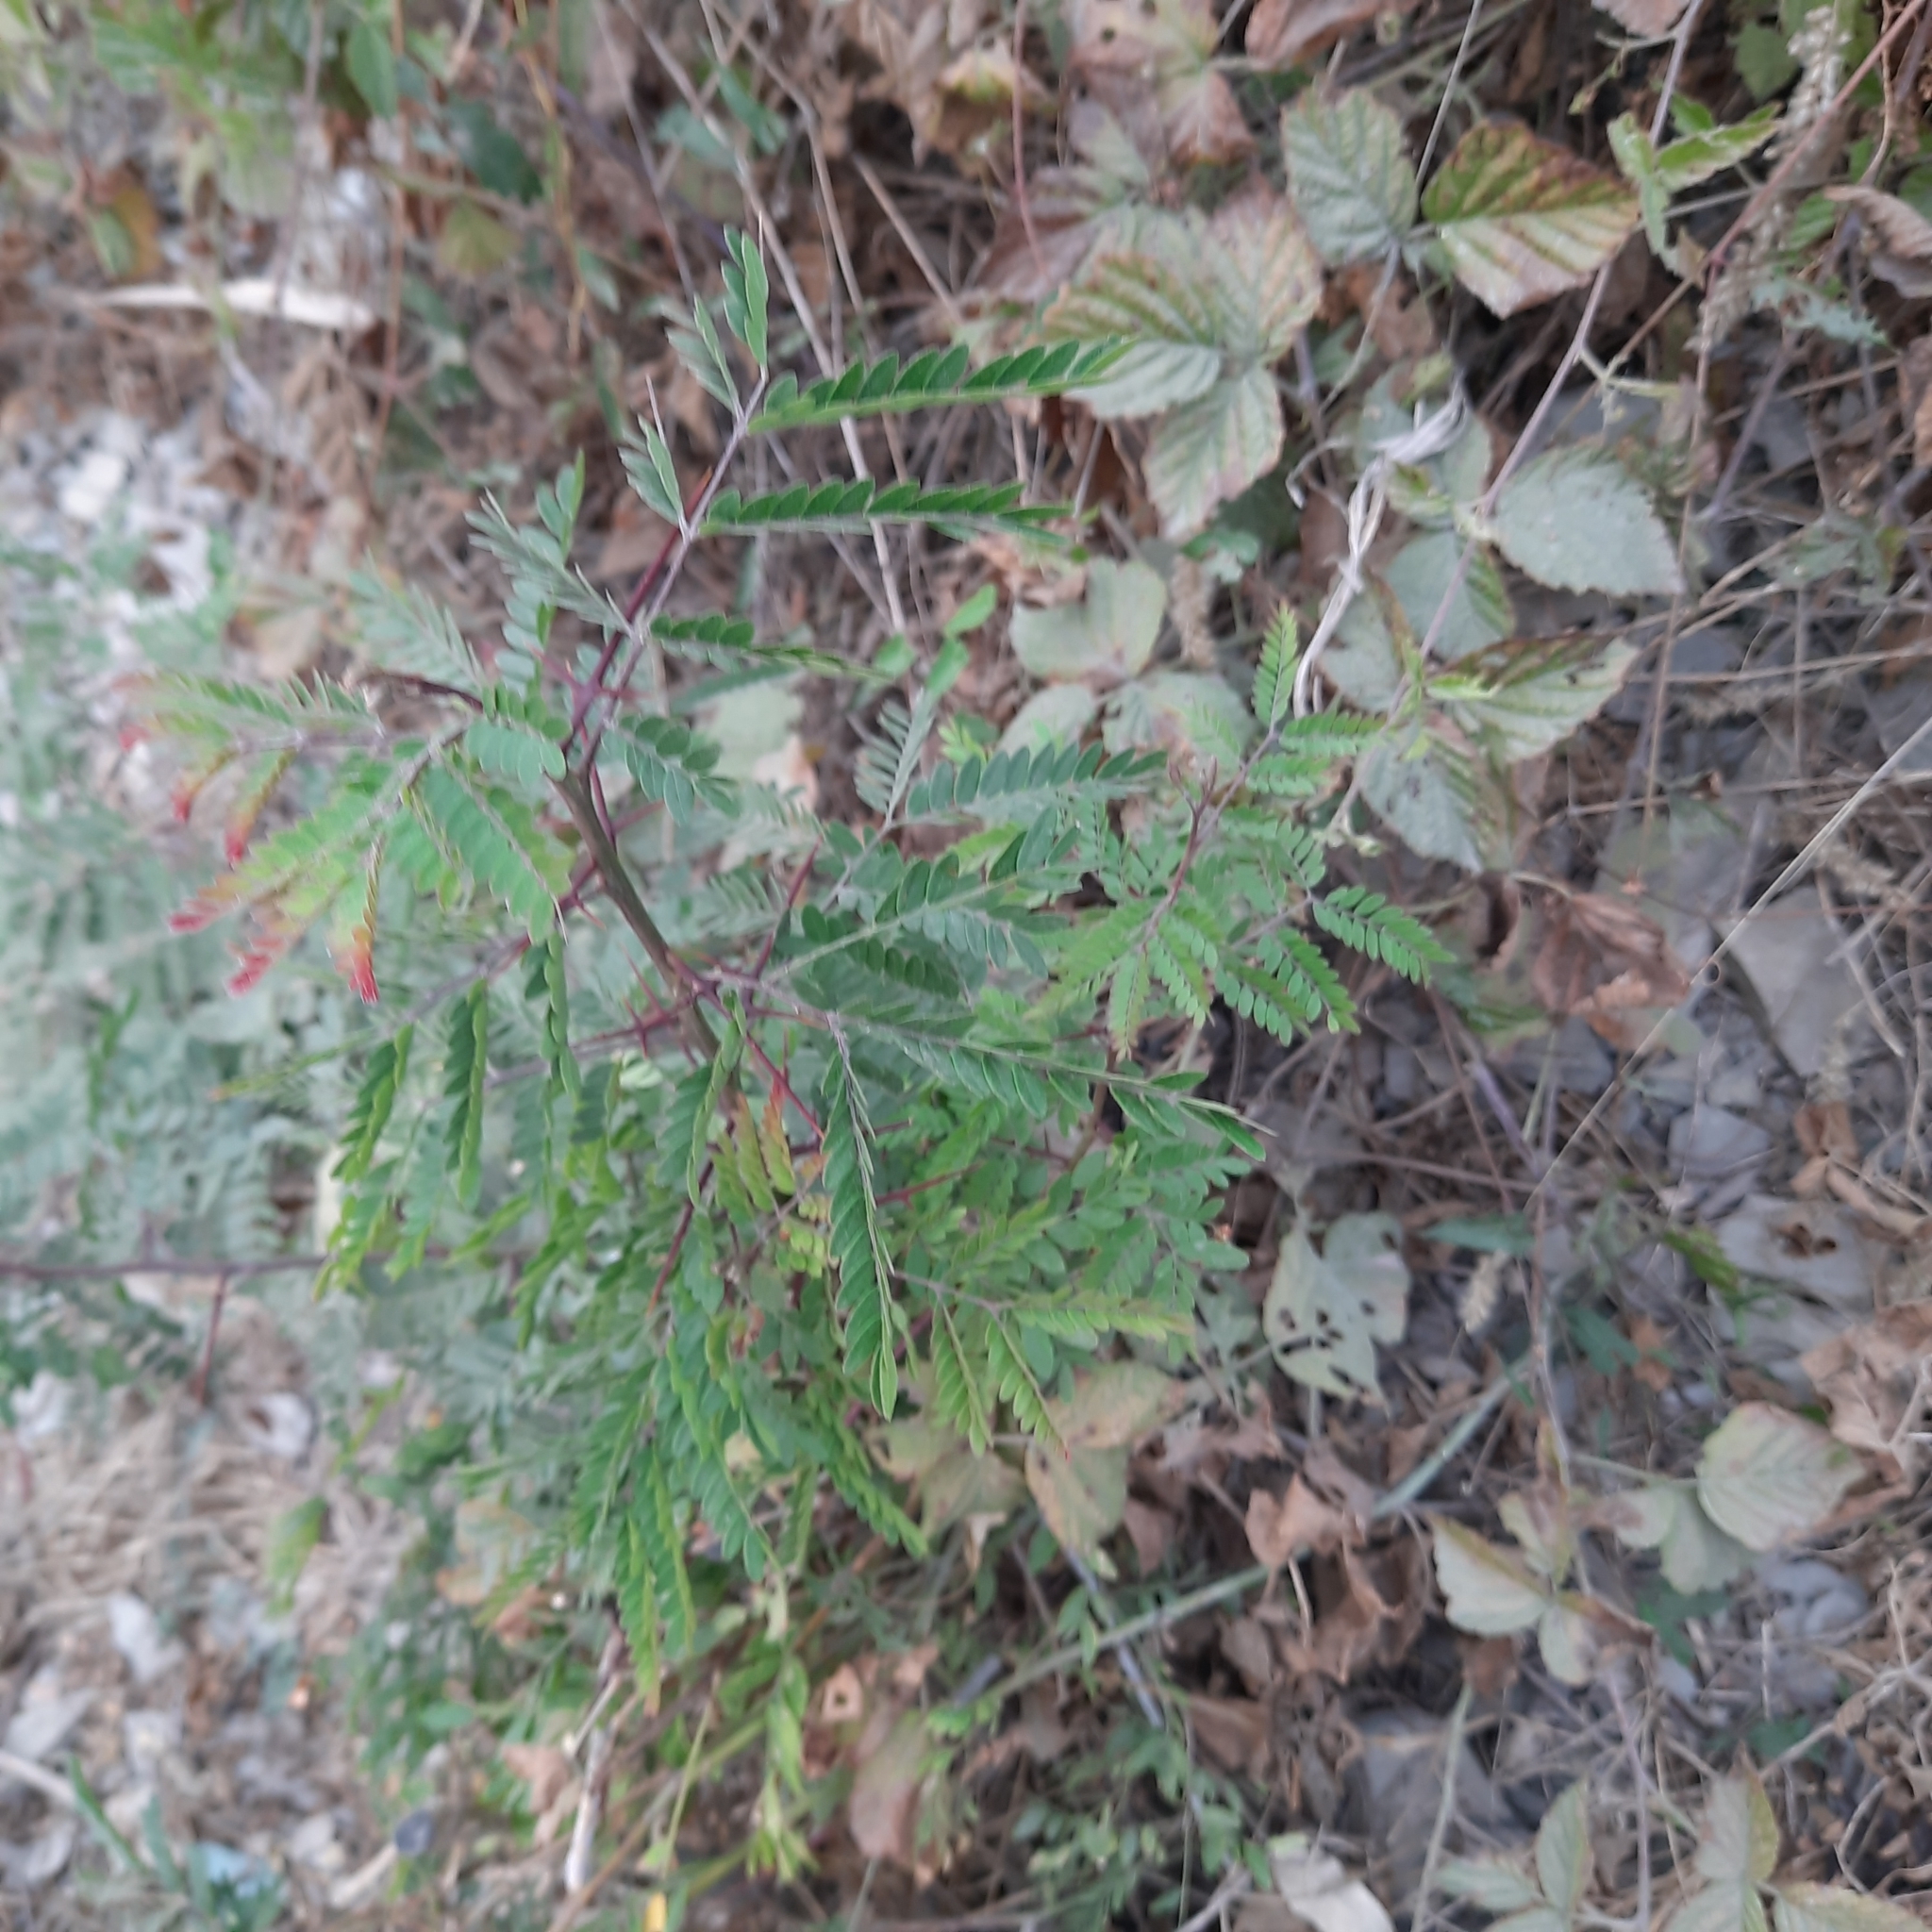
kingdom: Plantae
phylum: Tracheophyta
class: Magnoliopsida
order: Fabales
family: Fabaceae
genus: Gleditsia
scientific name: Gleditsia triacanthos
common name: Common honeylocust
